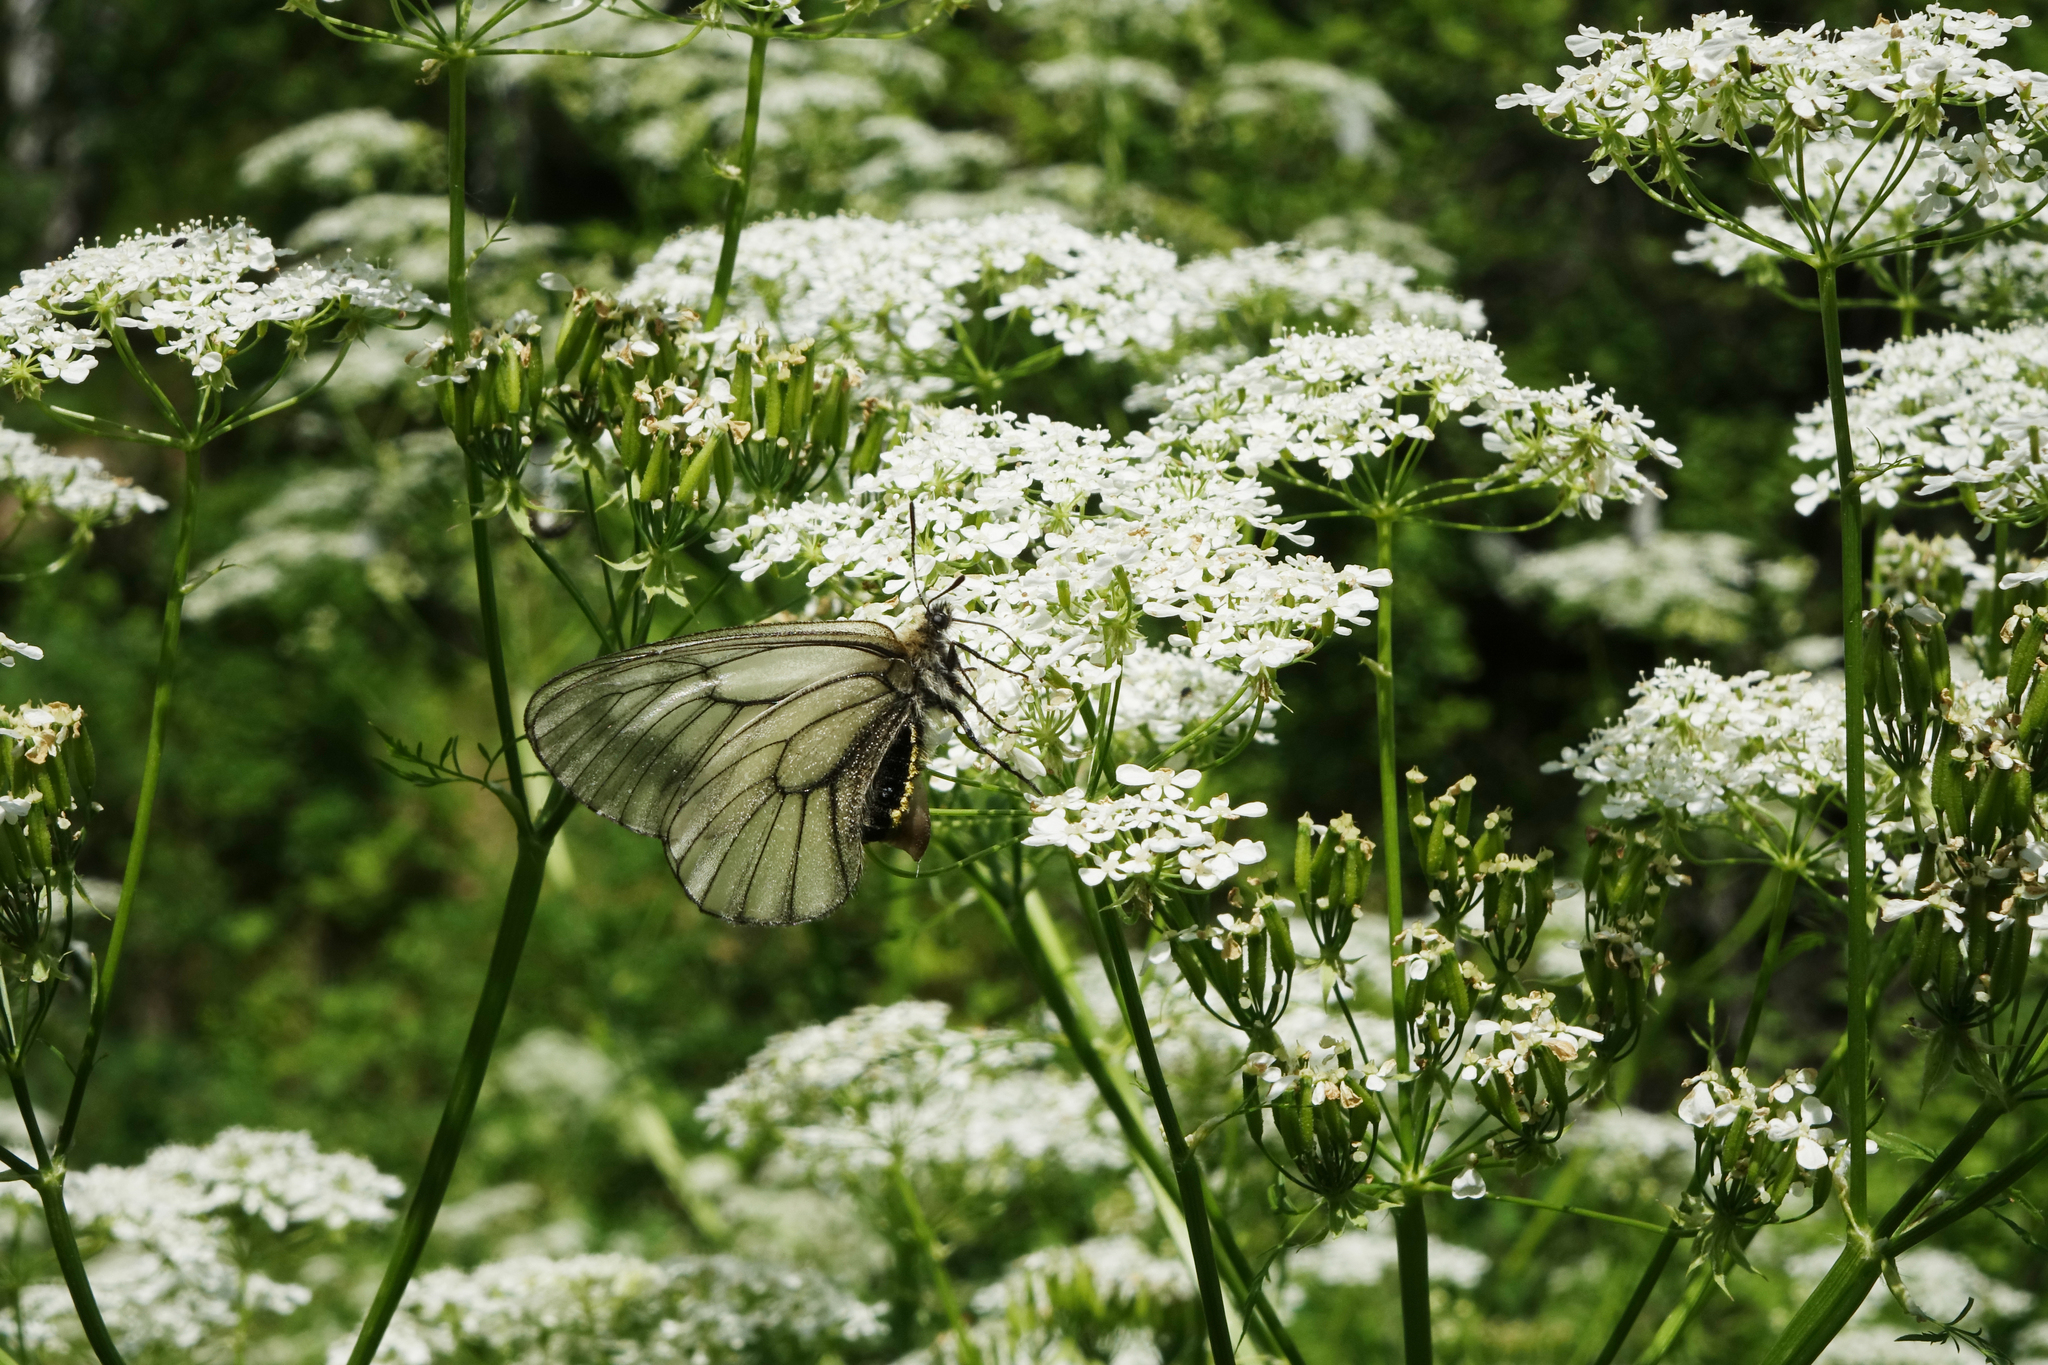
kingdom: Animalia
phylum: Arthropoda
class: Insecta
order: Lepidoptera
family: Papilionidae
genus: Parnassius
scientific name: Parnassius stubbendorfii
